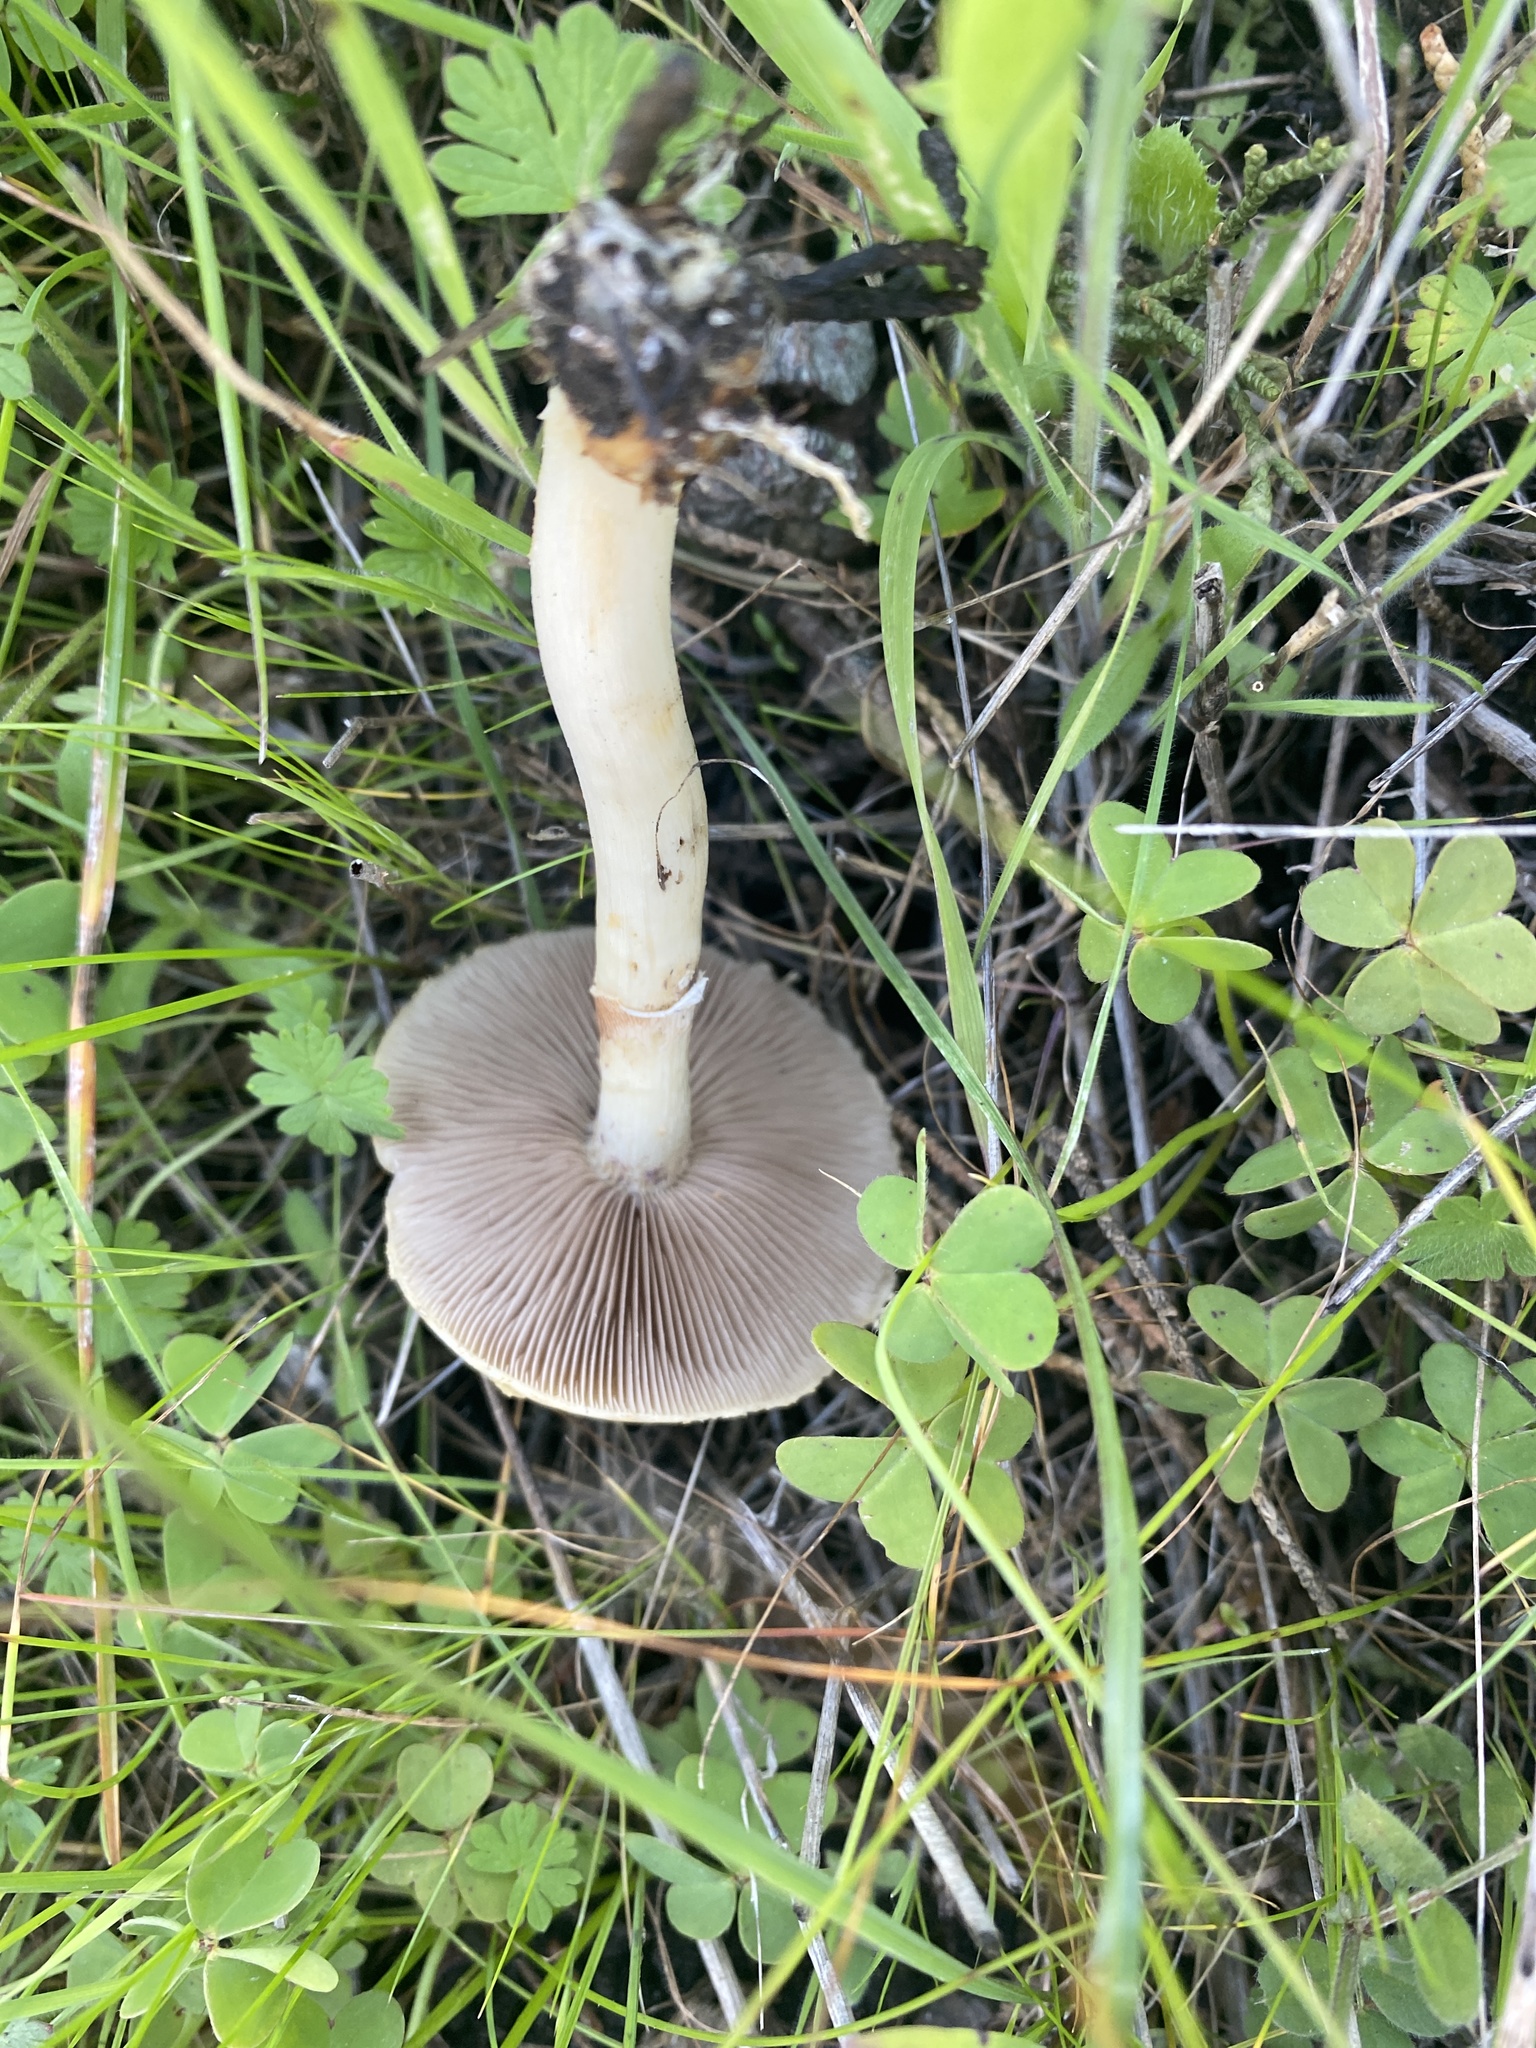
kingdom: Fungi
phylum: Basidiomycota
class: Agaricomycetes
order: Agaricales
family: Strophariaceae
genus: Agrocybe
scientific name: Agrocybe praecox
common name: Spring fieldcap
